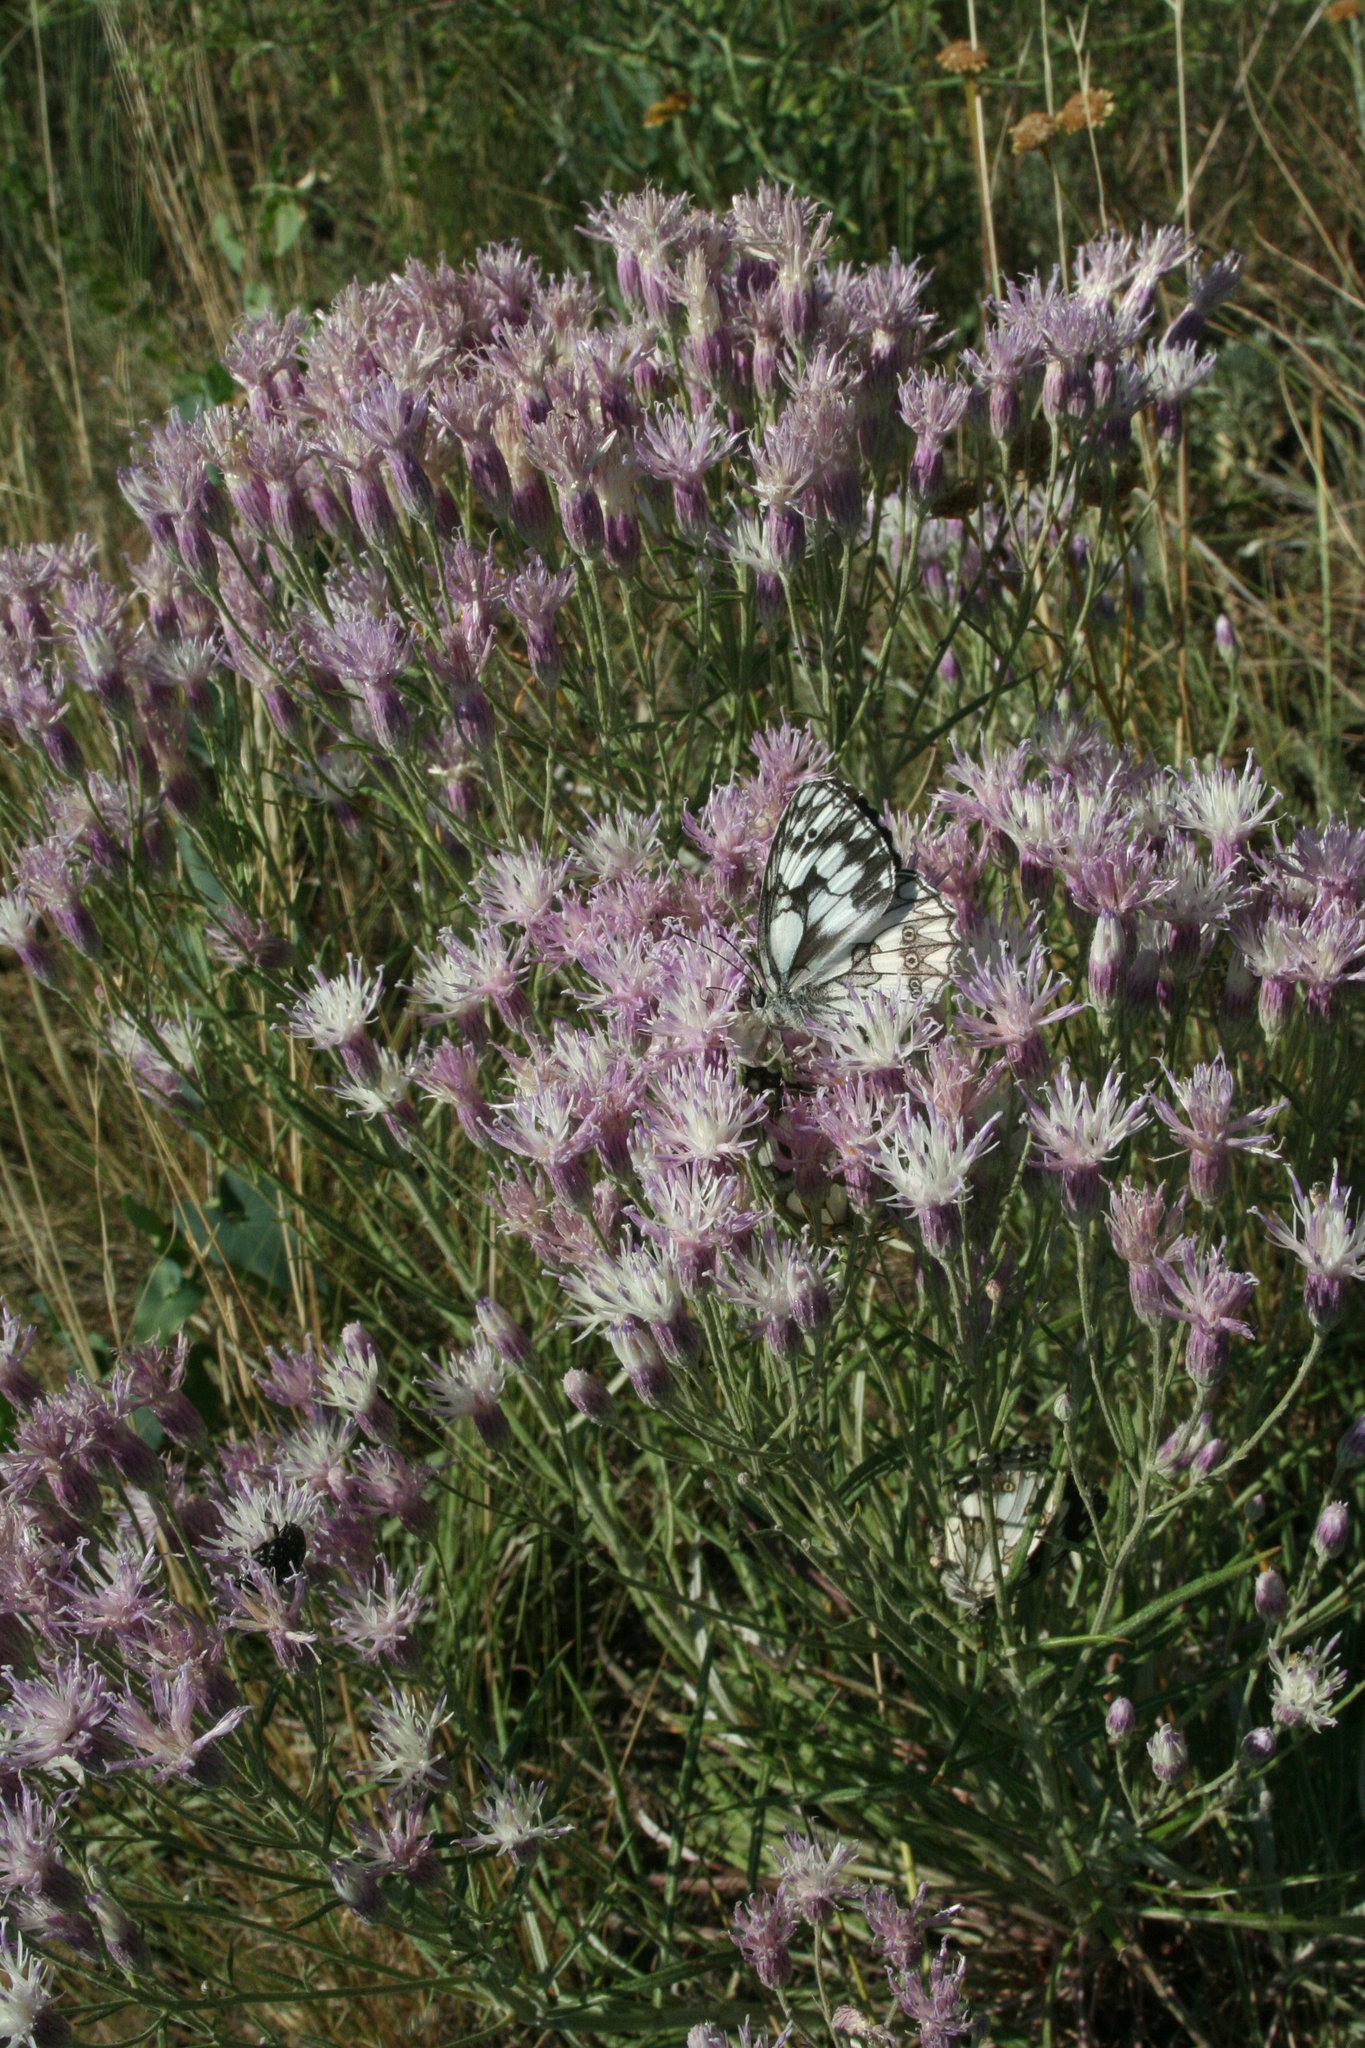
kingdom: Plantae
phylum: Tracheophyta
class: Magnoliopsida
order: Asterales
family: Asteraceae
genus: Jurinea
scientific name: Jurinea multiflora
